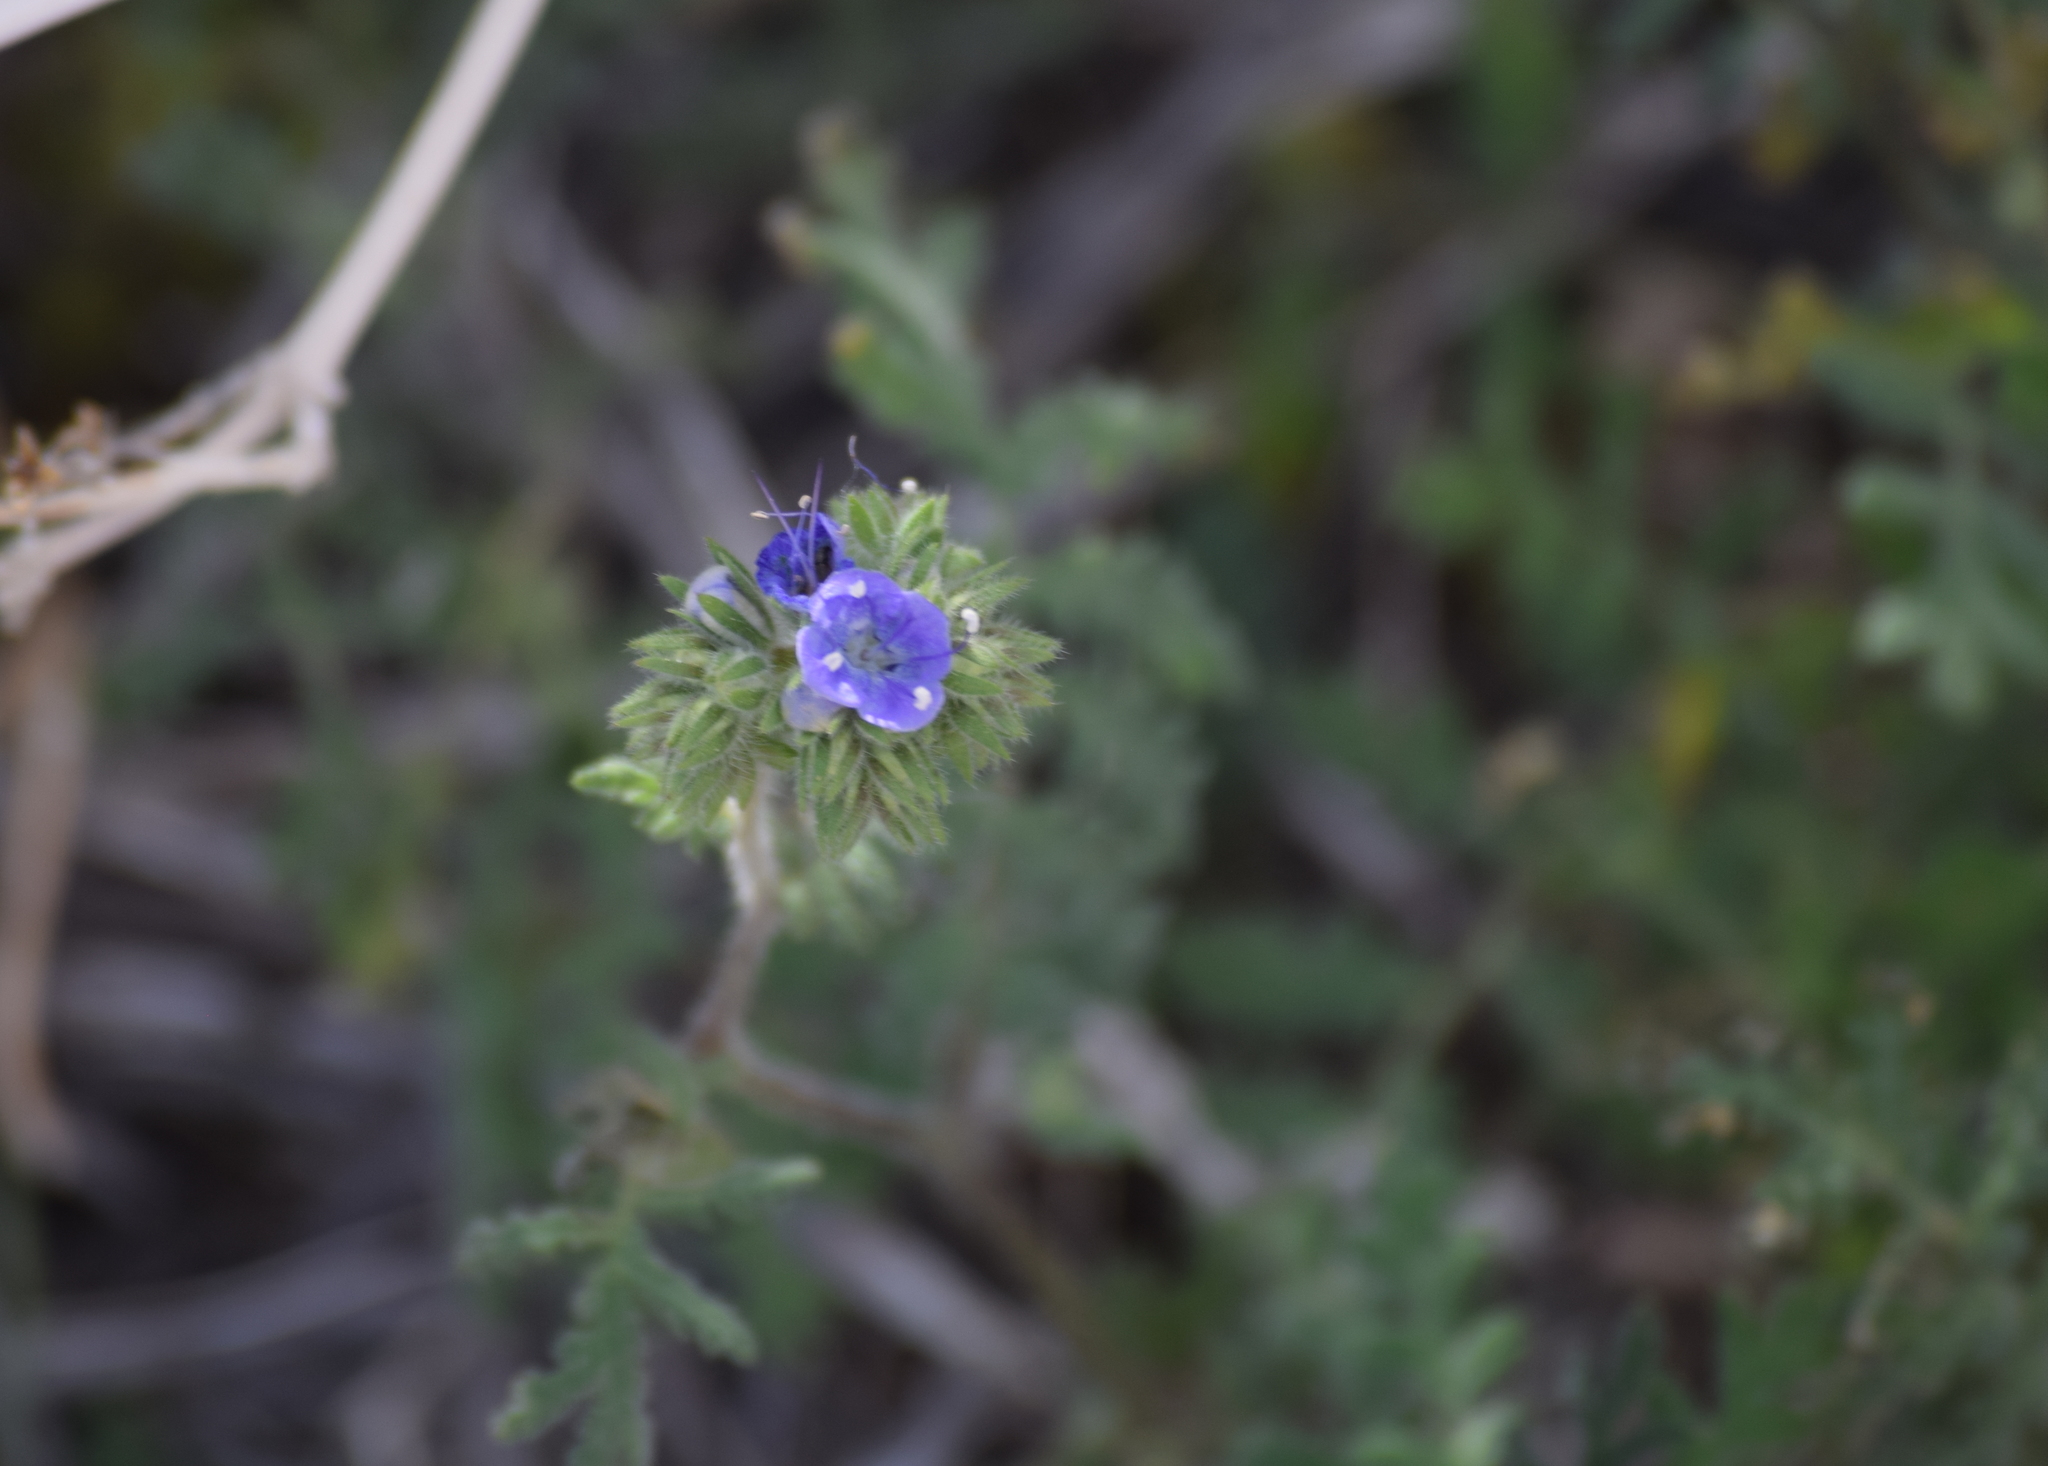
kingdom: Plantae
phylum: Tracheophyta
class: Magnoliopsida
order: Boraginales
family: Hydrophyllaceae
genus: Phacelia
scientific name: Phacelia distans
